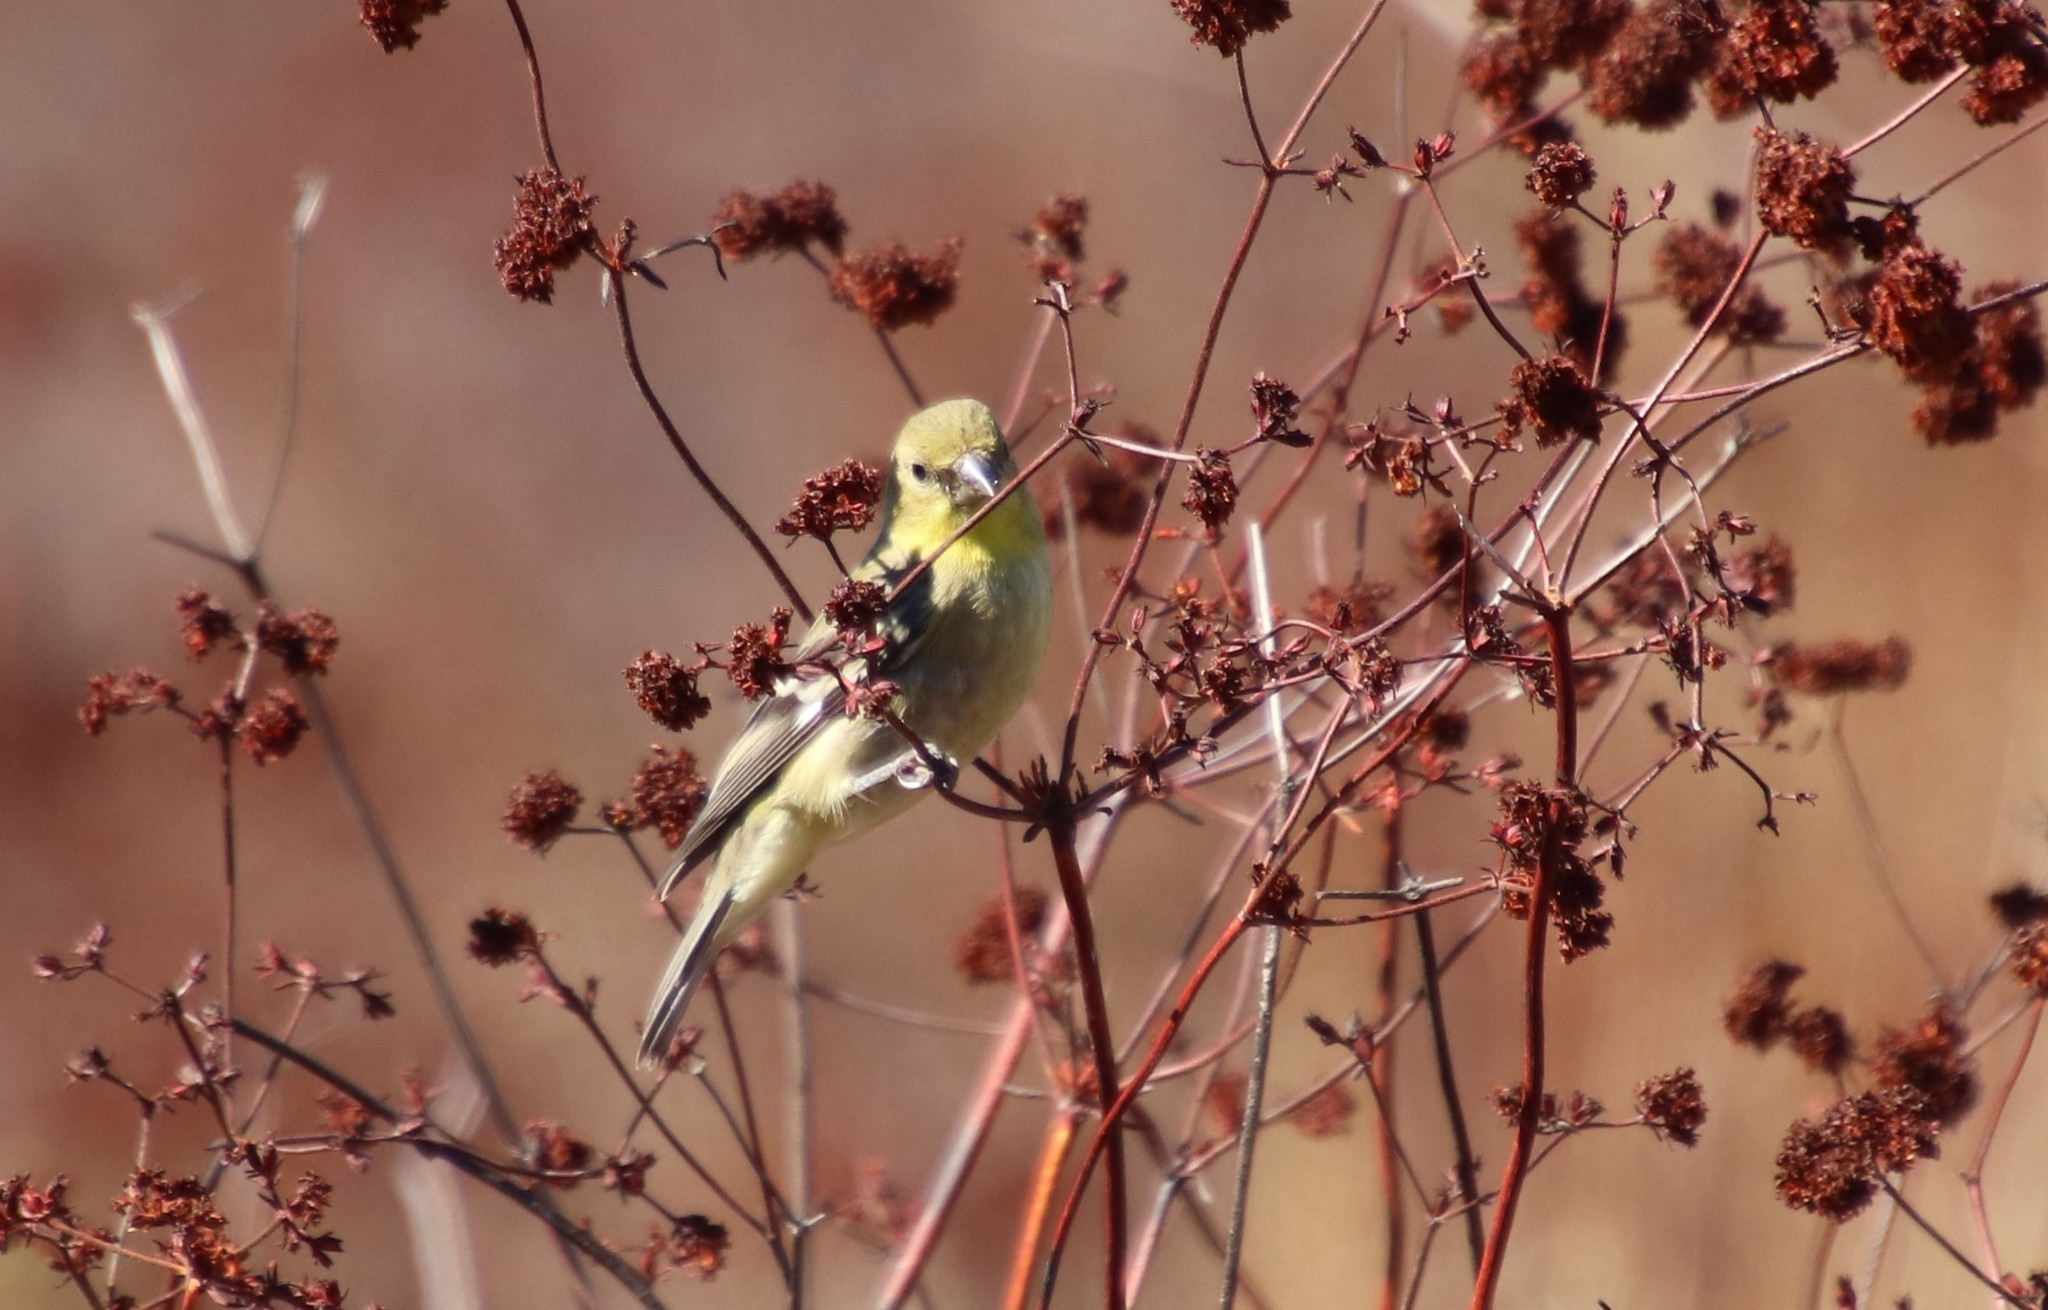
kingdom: Animalia
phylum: Chordata
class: Aves
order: Passeriformes
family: Fringillidae
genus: Spinus
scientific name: Spinus psaltria
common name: Lesser goldfinch
